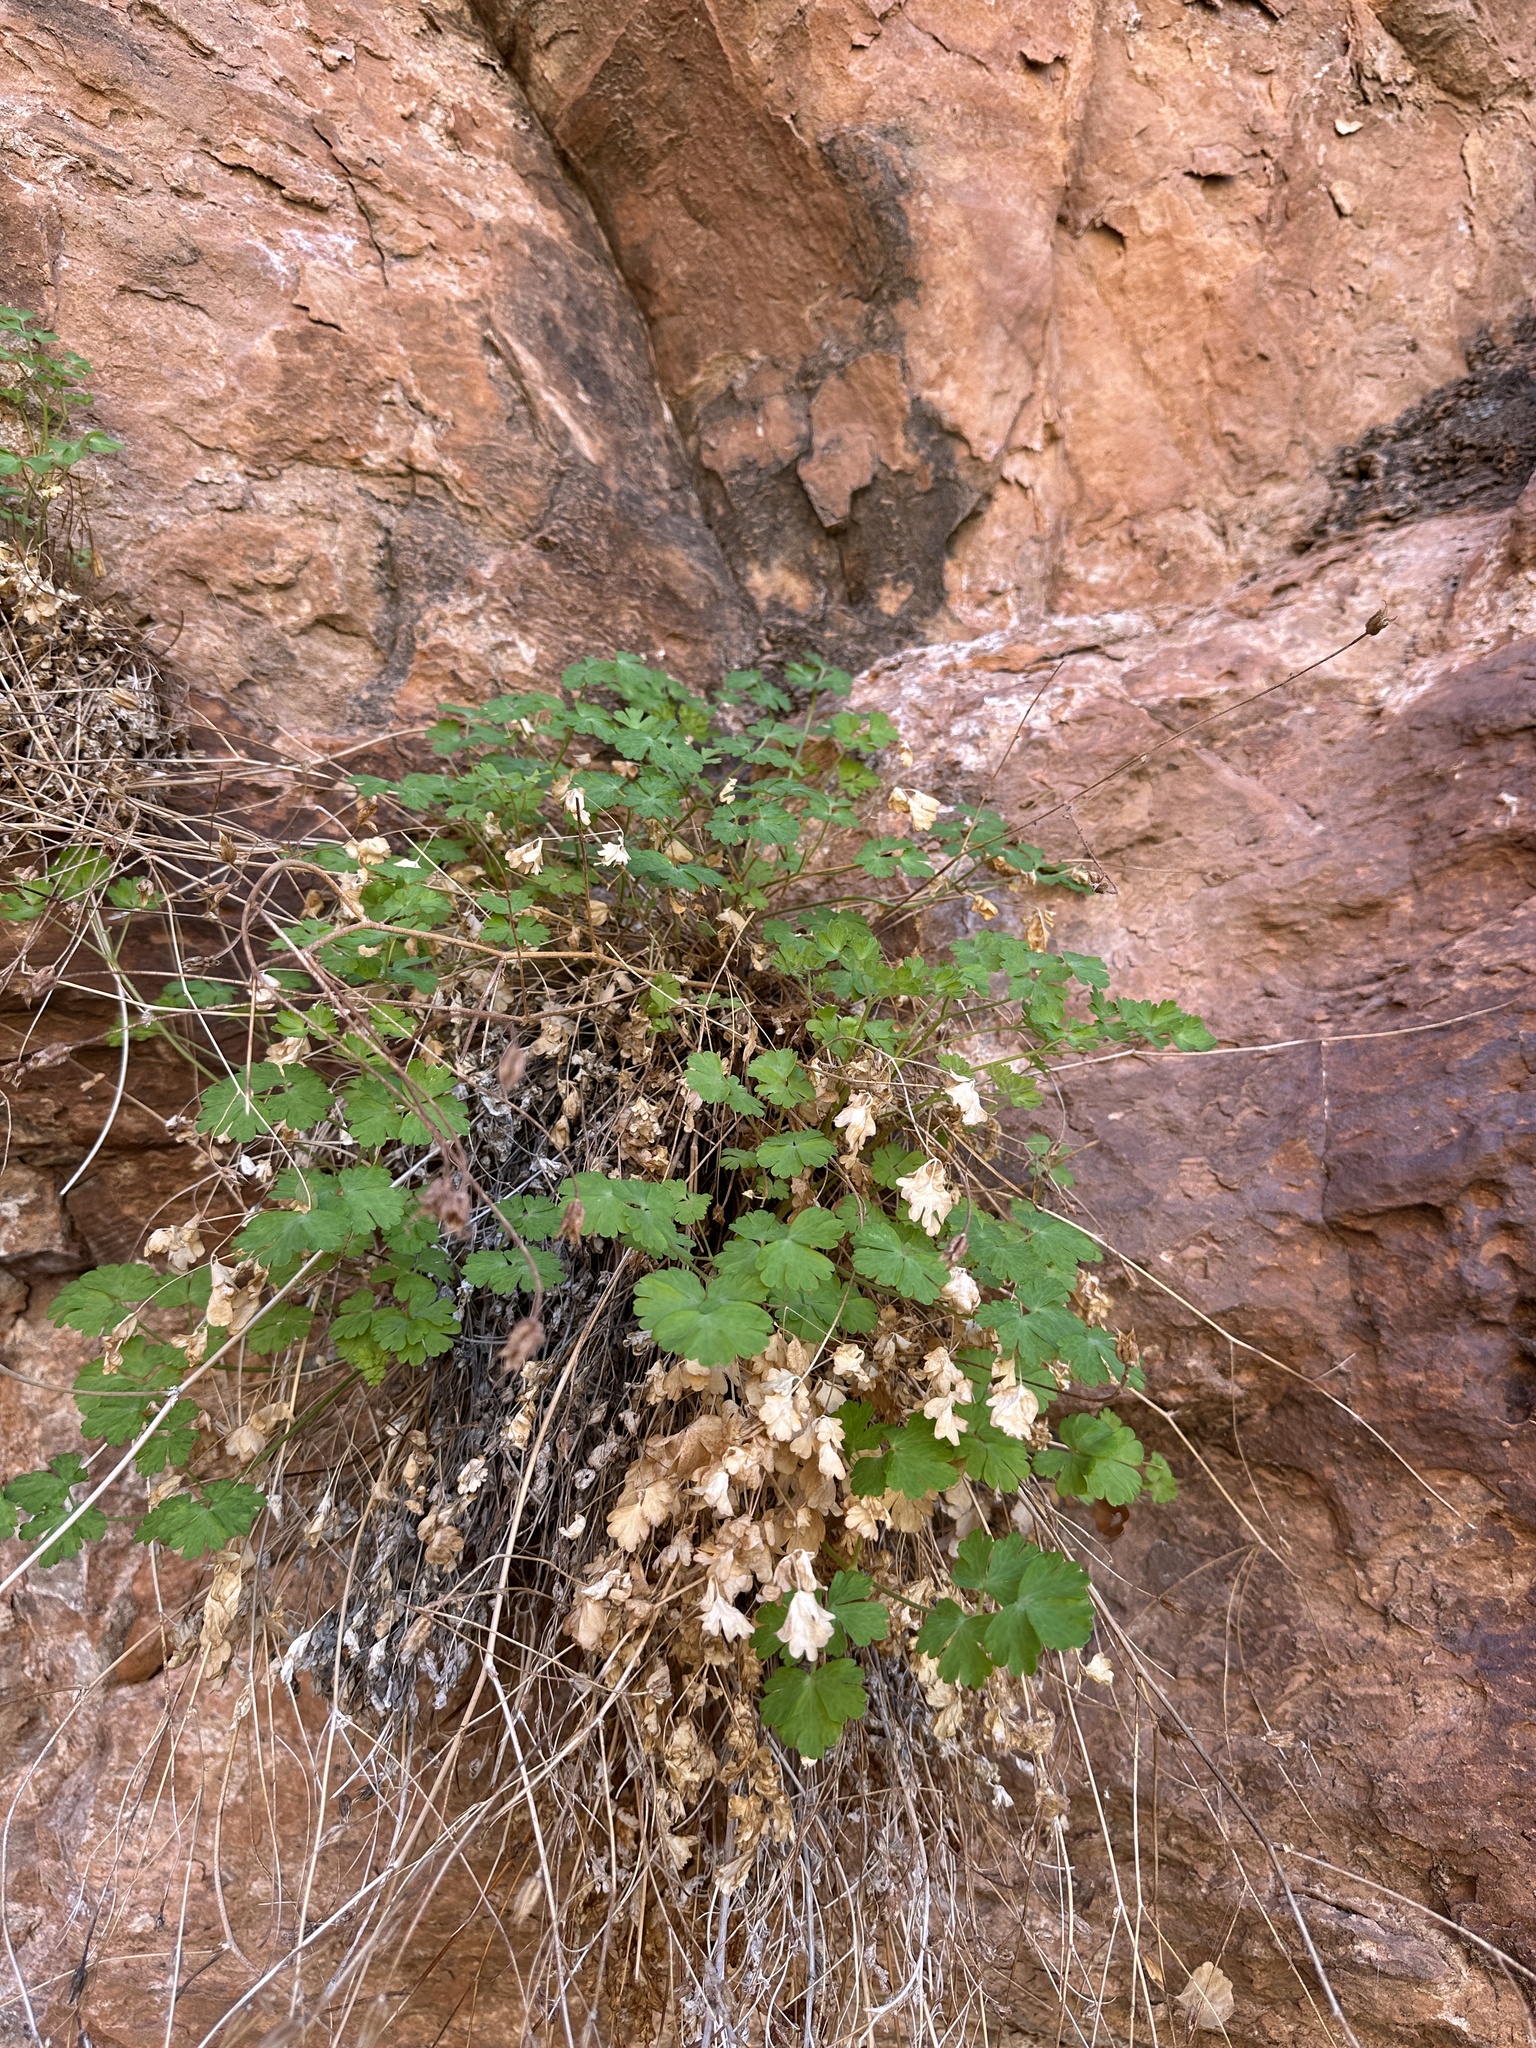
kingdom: Plantae
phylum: Tracheophyta
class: Magnoliopsida
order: Ranunculales
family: Ranunculaceae
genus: Aquilegia
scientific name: Aquilegia micrantha
